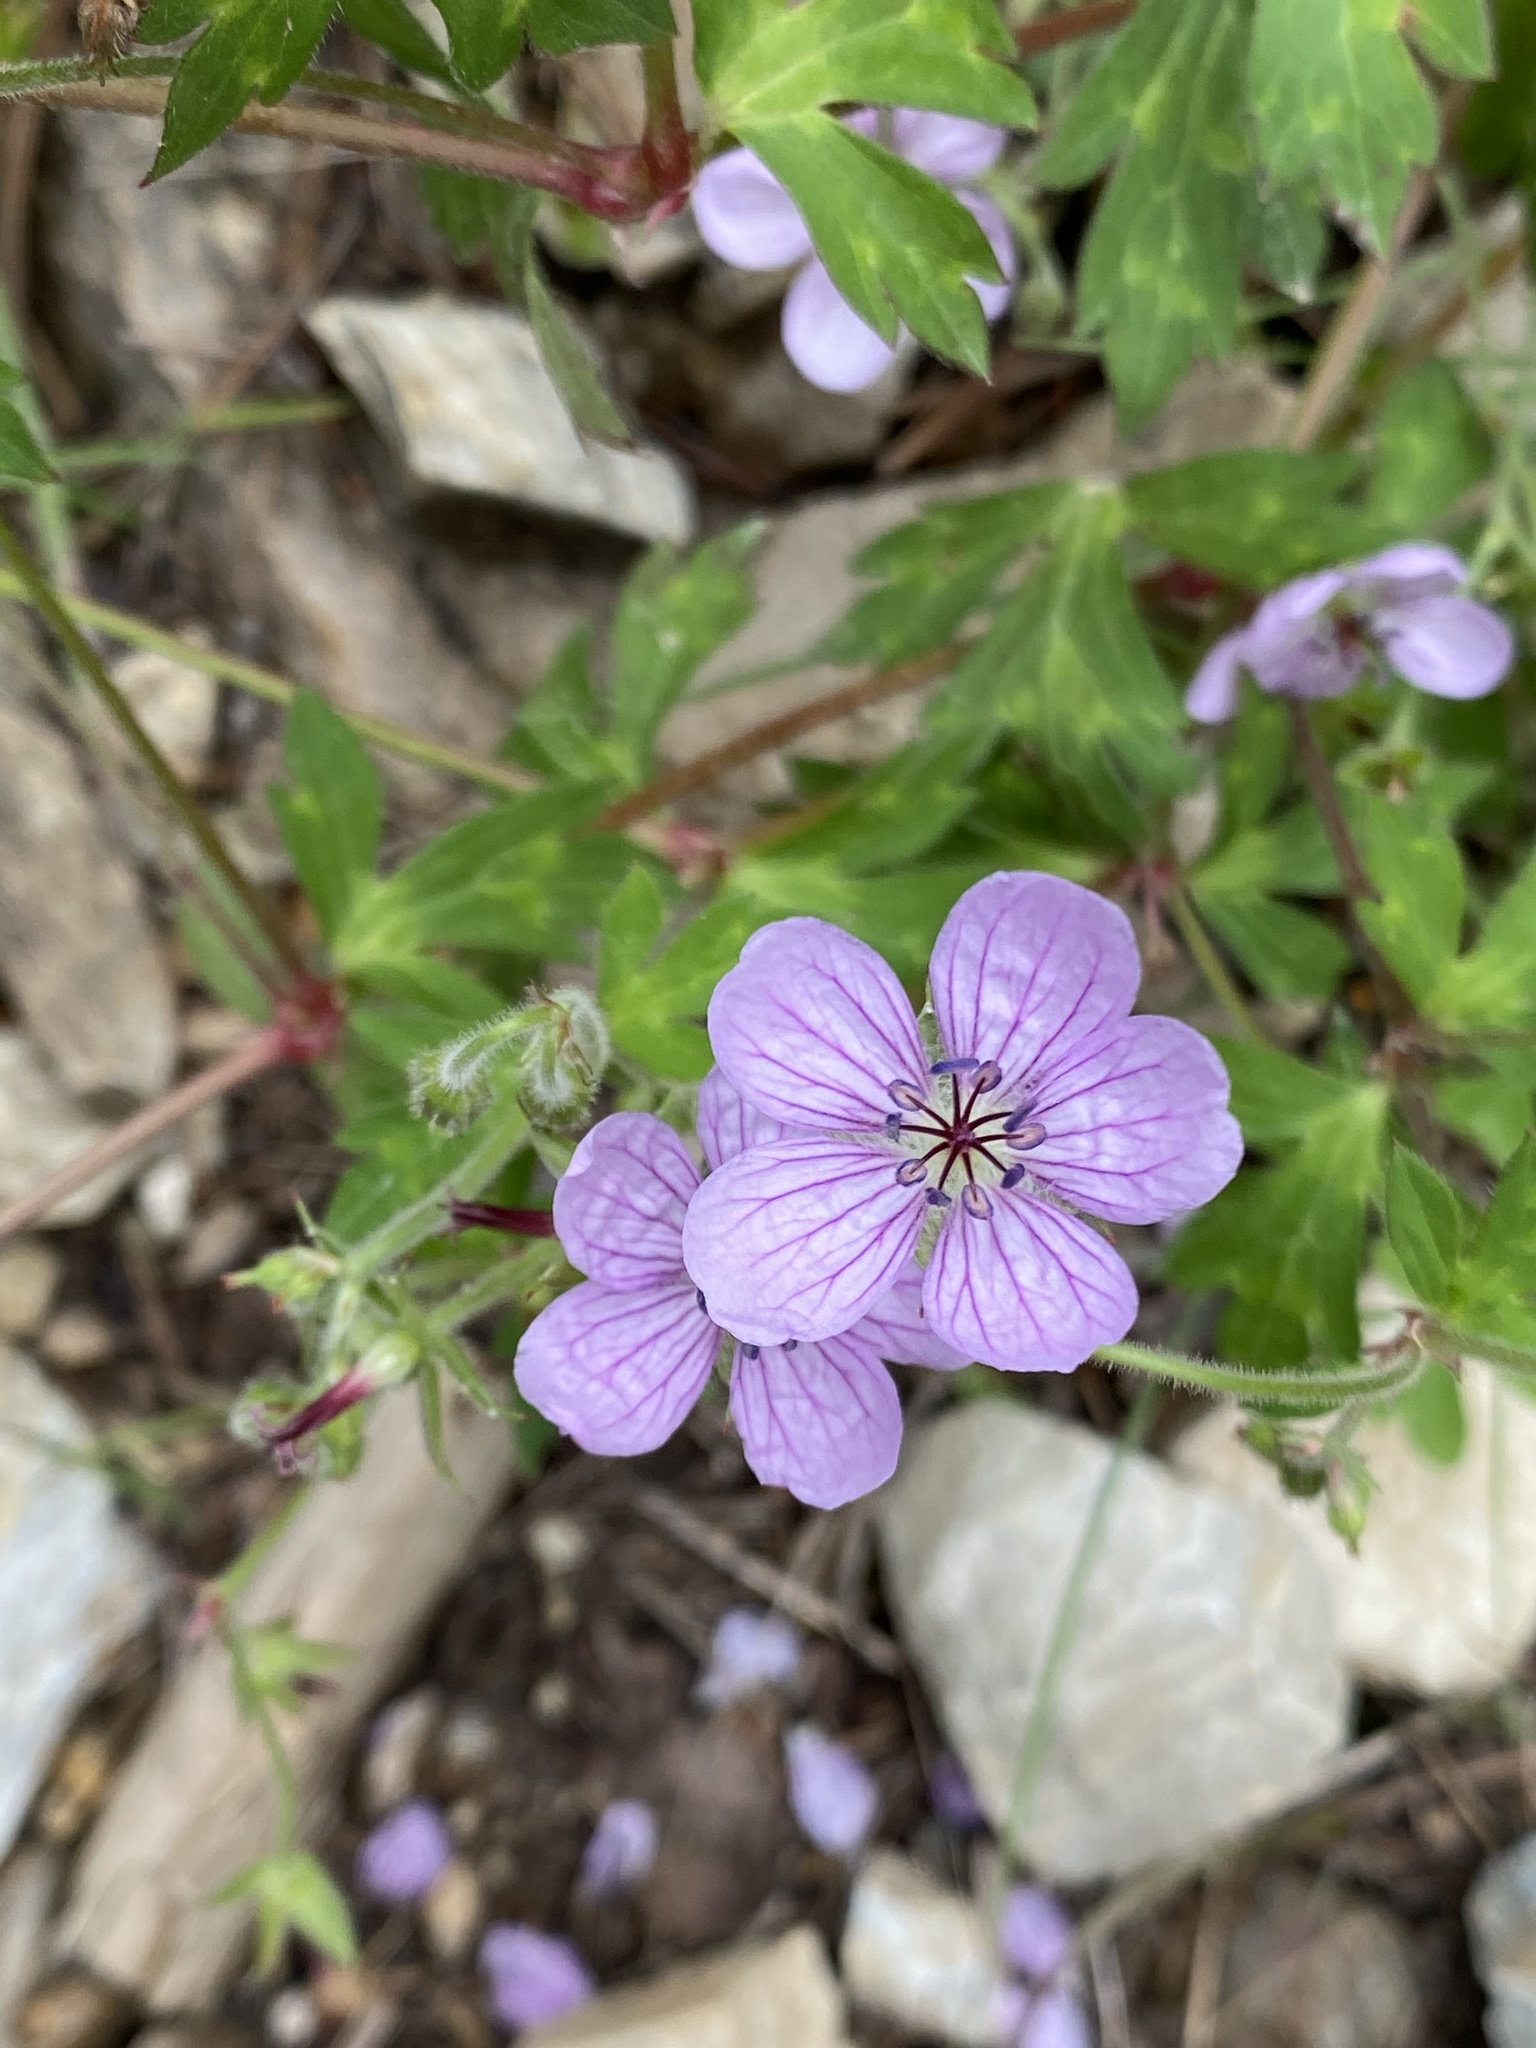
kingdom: Plantae
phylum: Tracheophyta
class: Magnoliopsida
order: Geraniales
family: Geraniaceae
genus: Geranium
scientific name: Geranium richardsonii
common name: Richardson's crane's-bill
